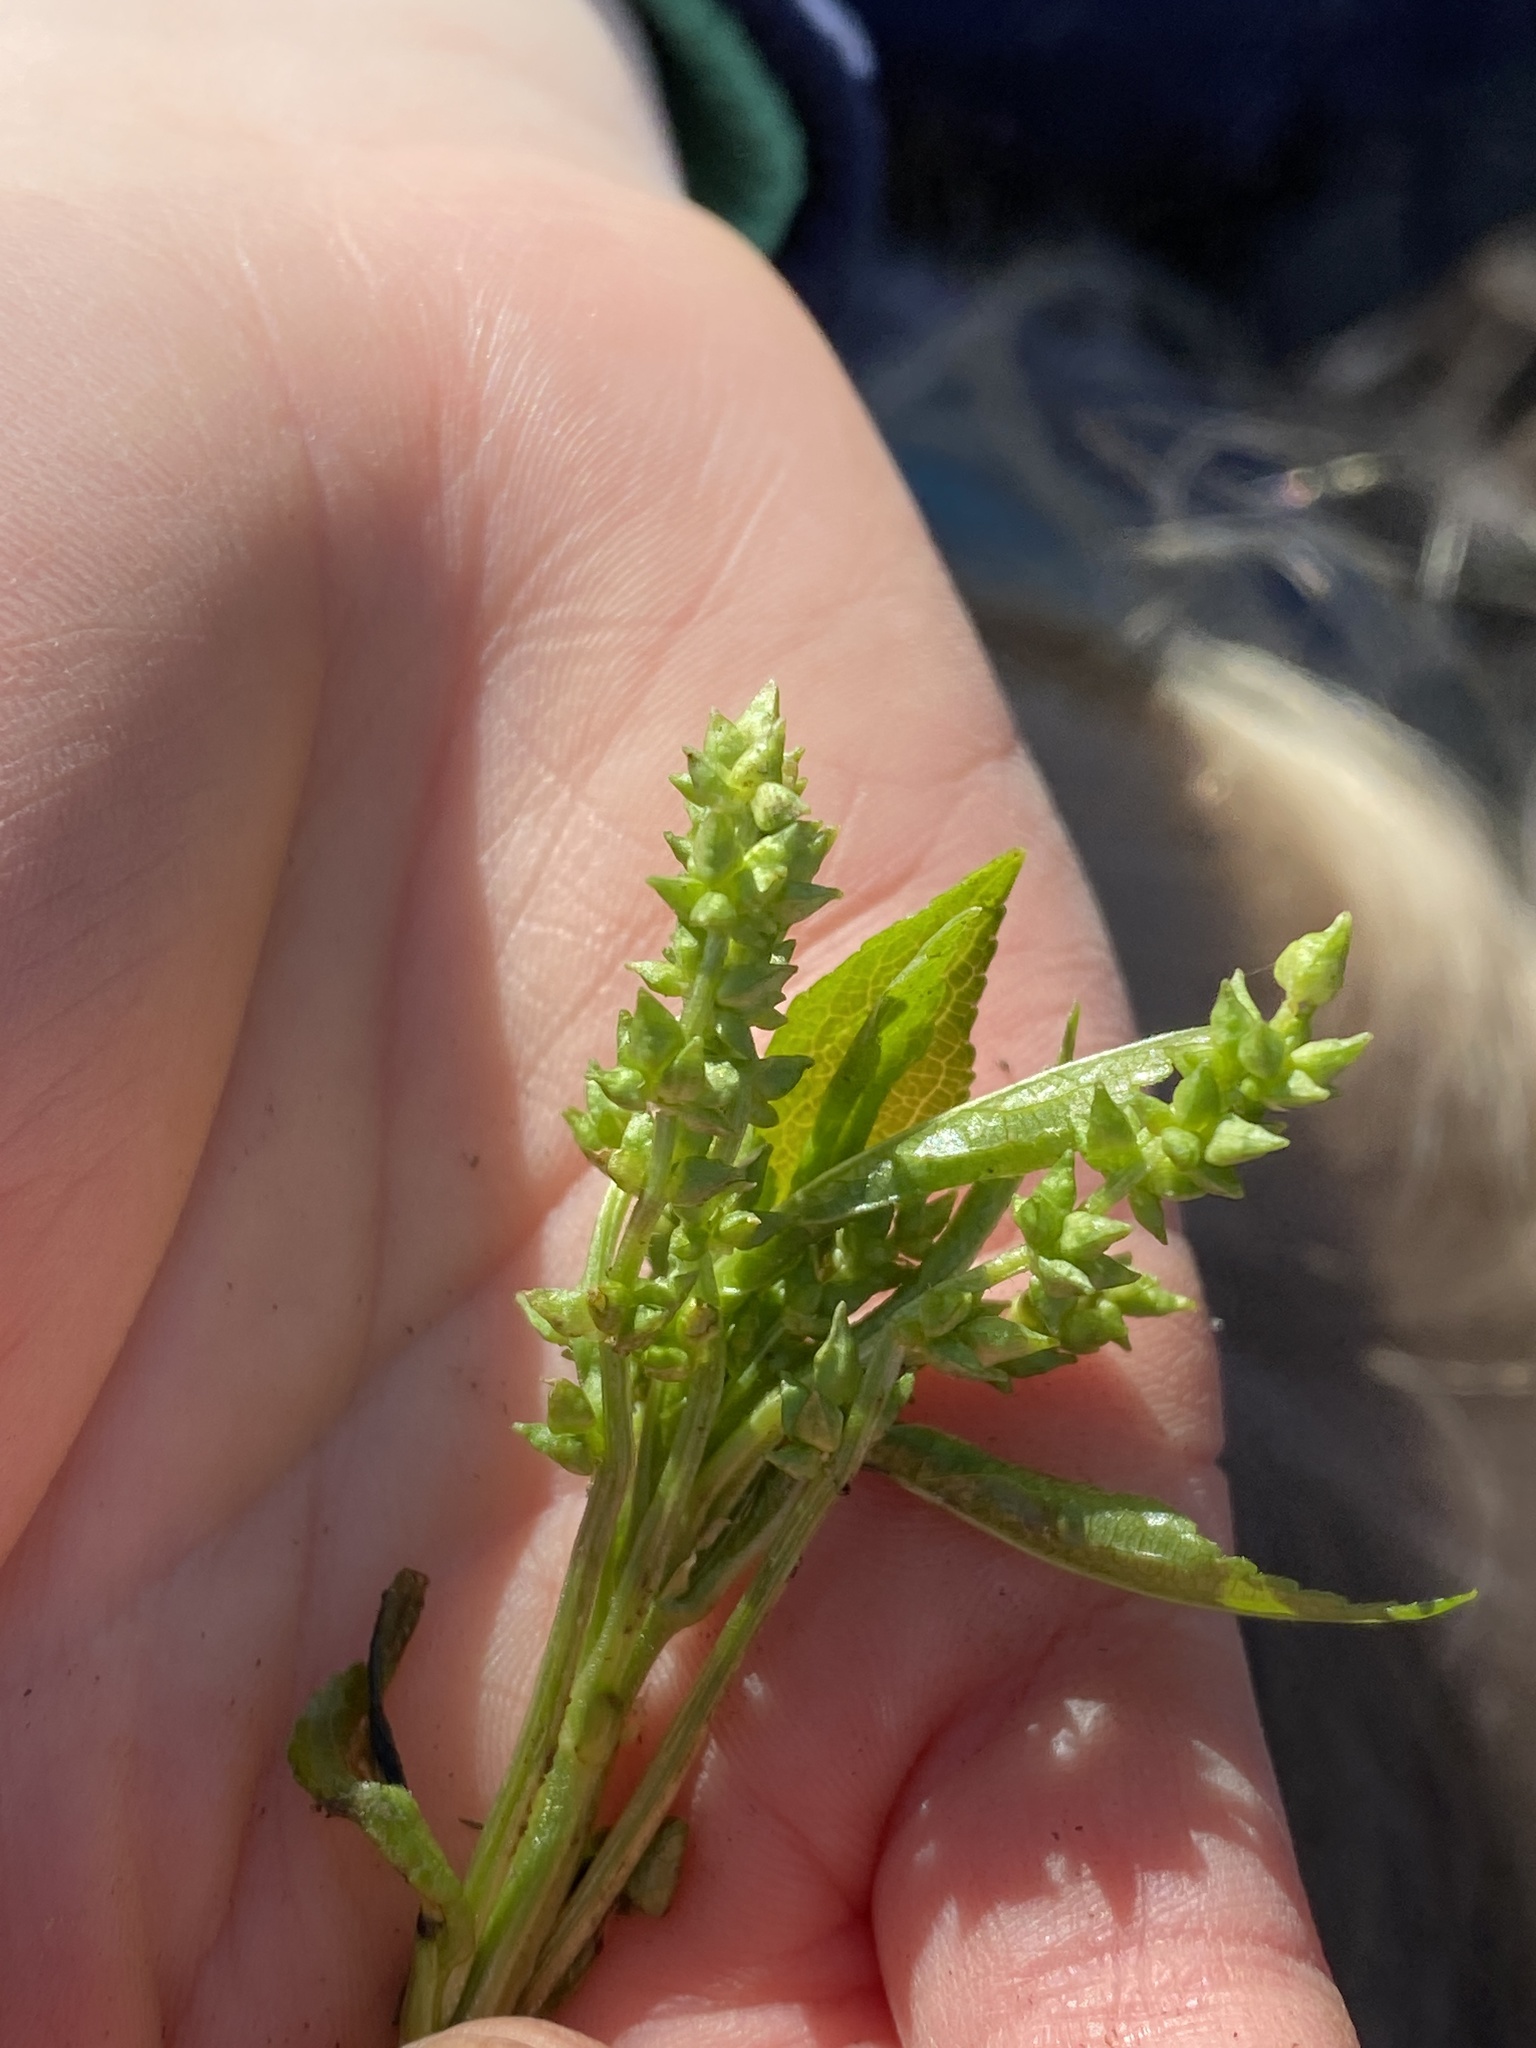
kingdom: Plantae
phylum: Tracheophyta
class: Magnoliopsida
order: Malpighiales
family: Euphorbiaceae
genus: Mercurialis
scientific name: Mercurialis perennis
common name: Dog mercury
